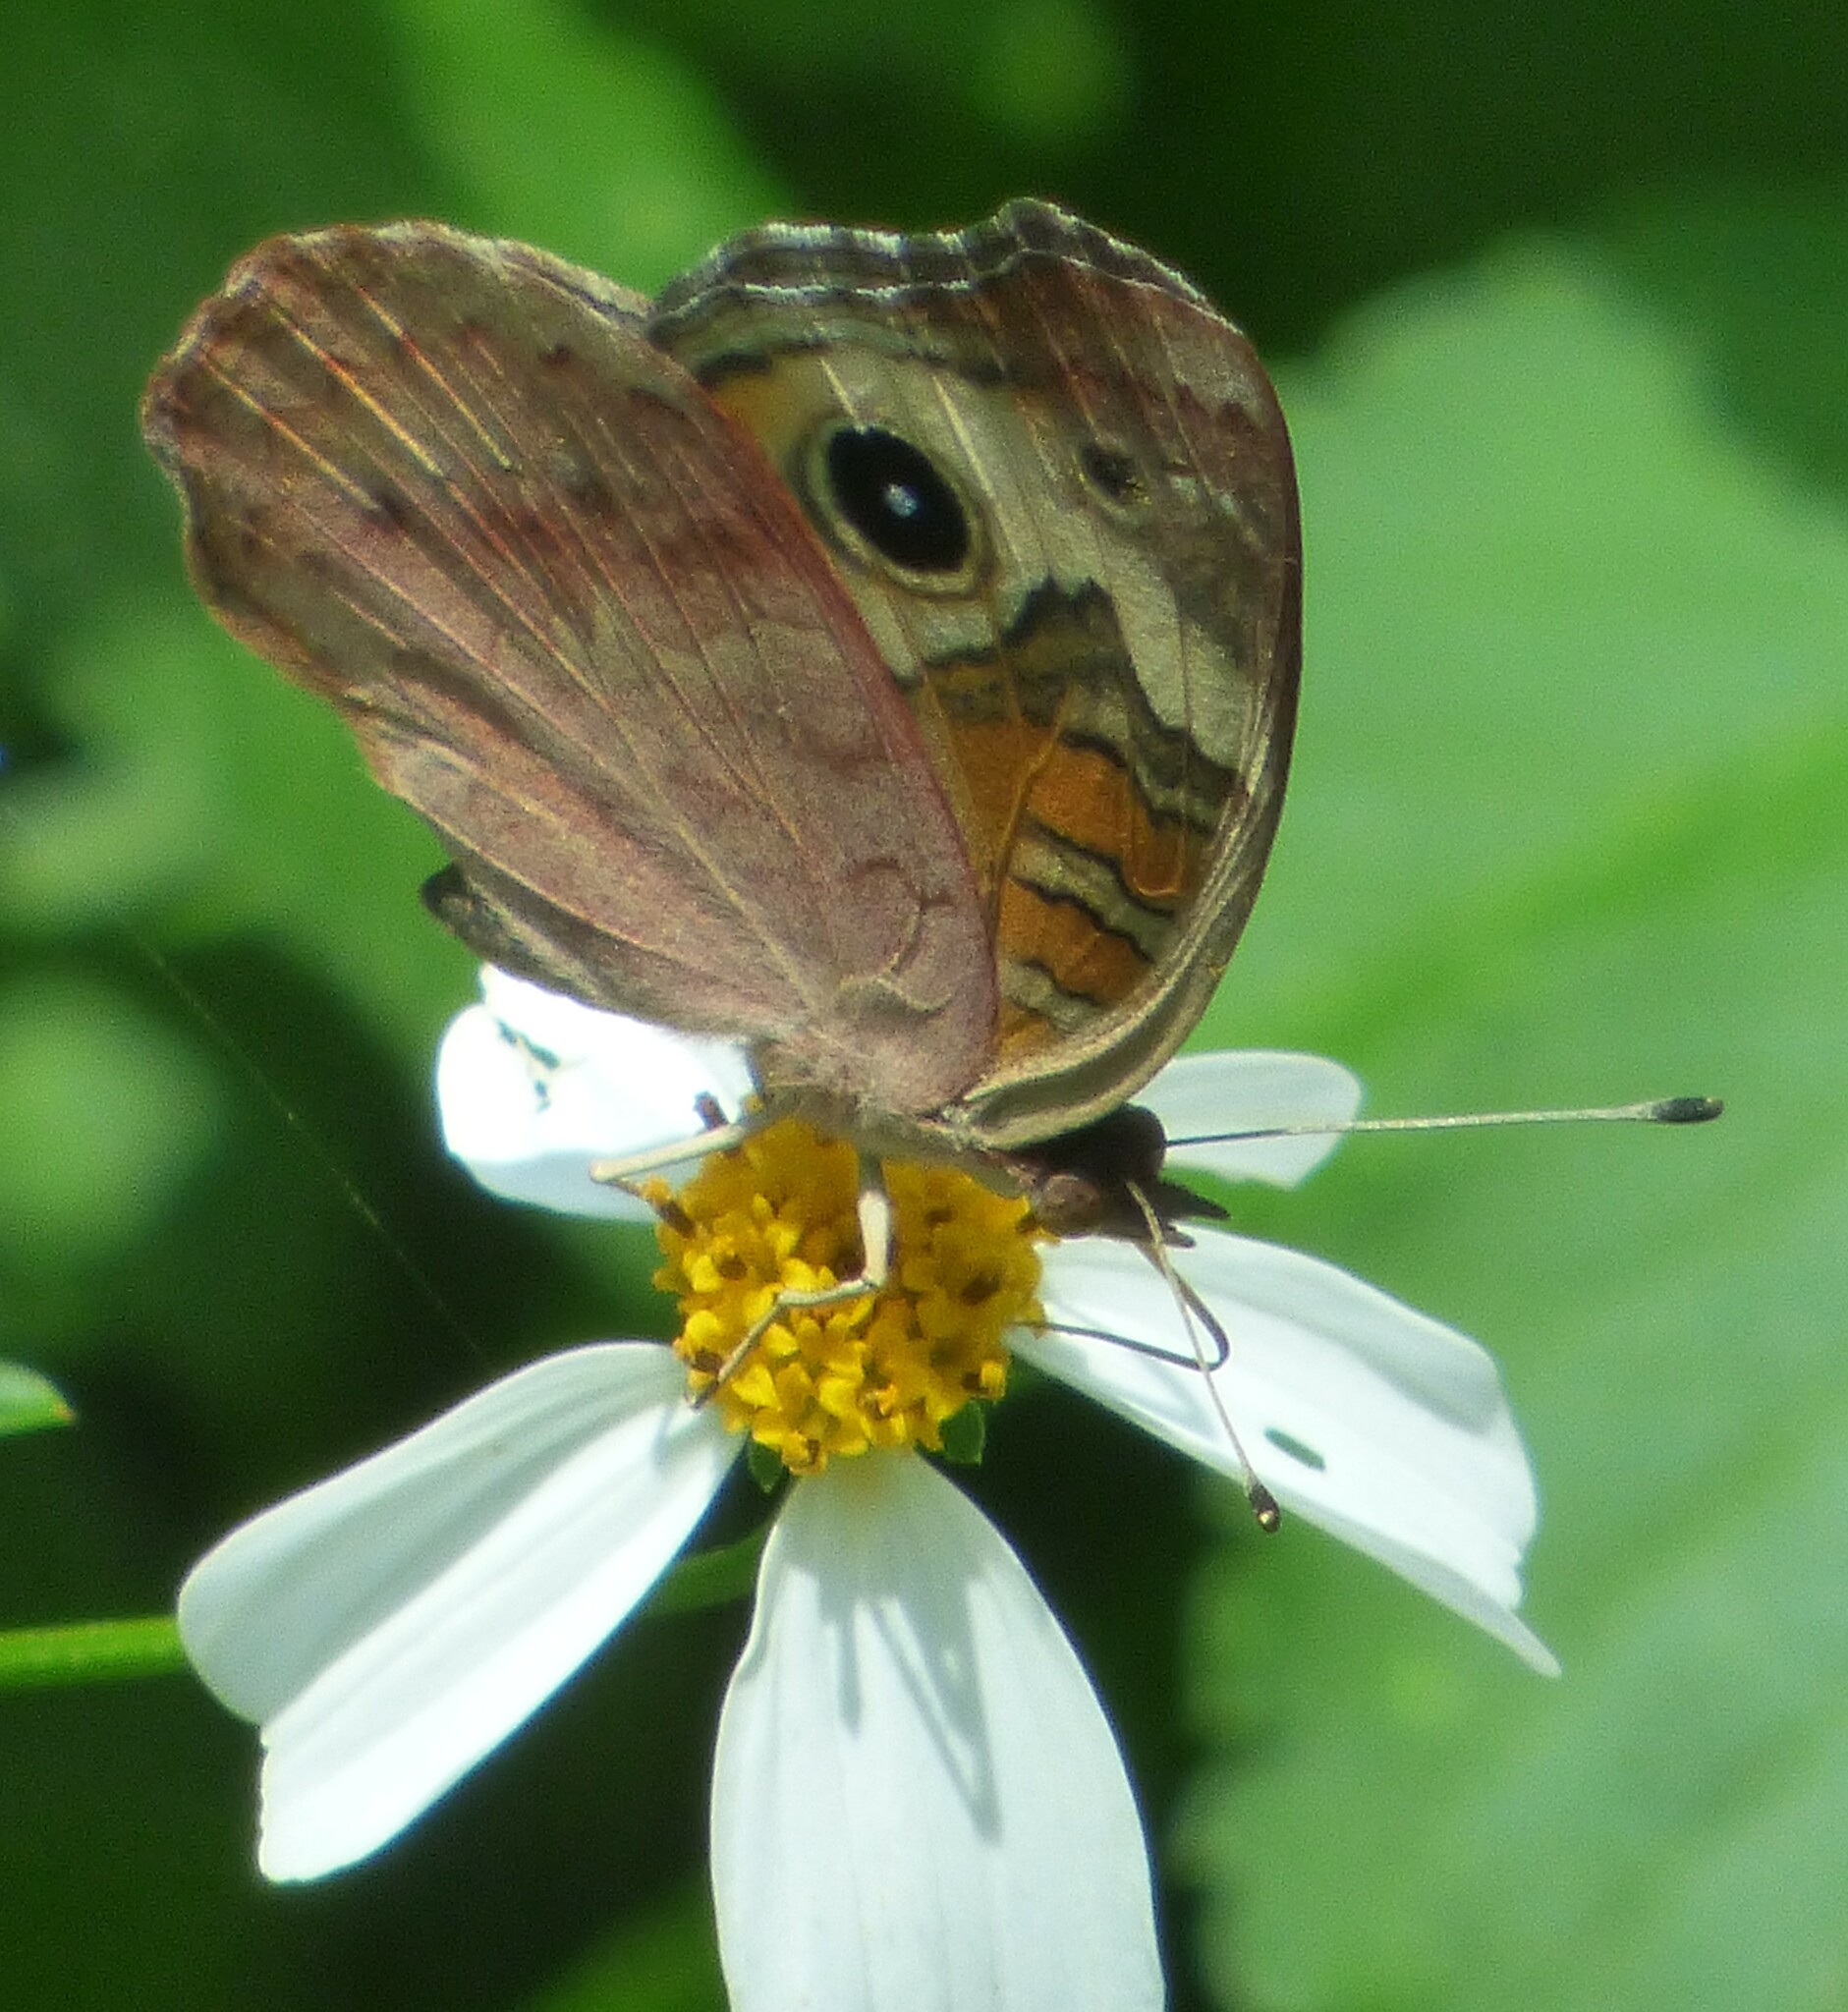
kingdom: Animalia
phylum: Arthropoda
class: Insecta
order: Lepidoptera
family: Nymphalidae
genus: Junonia
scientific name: Junonia coenia
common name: Common buckeye
